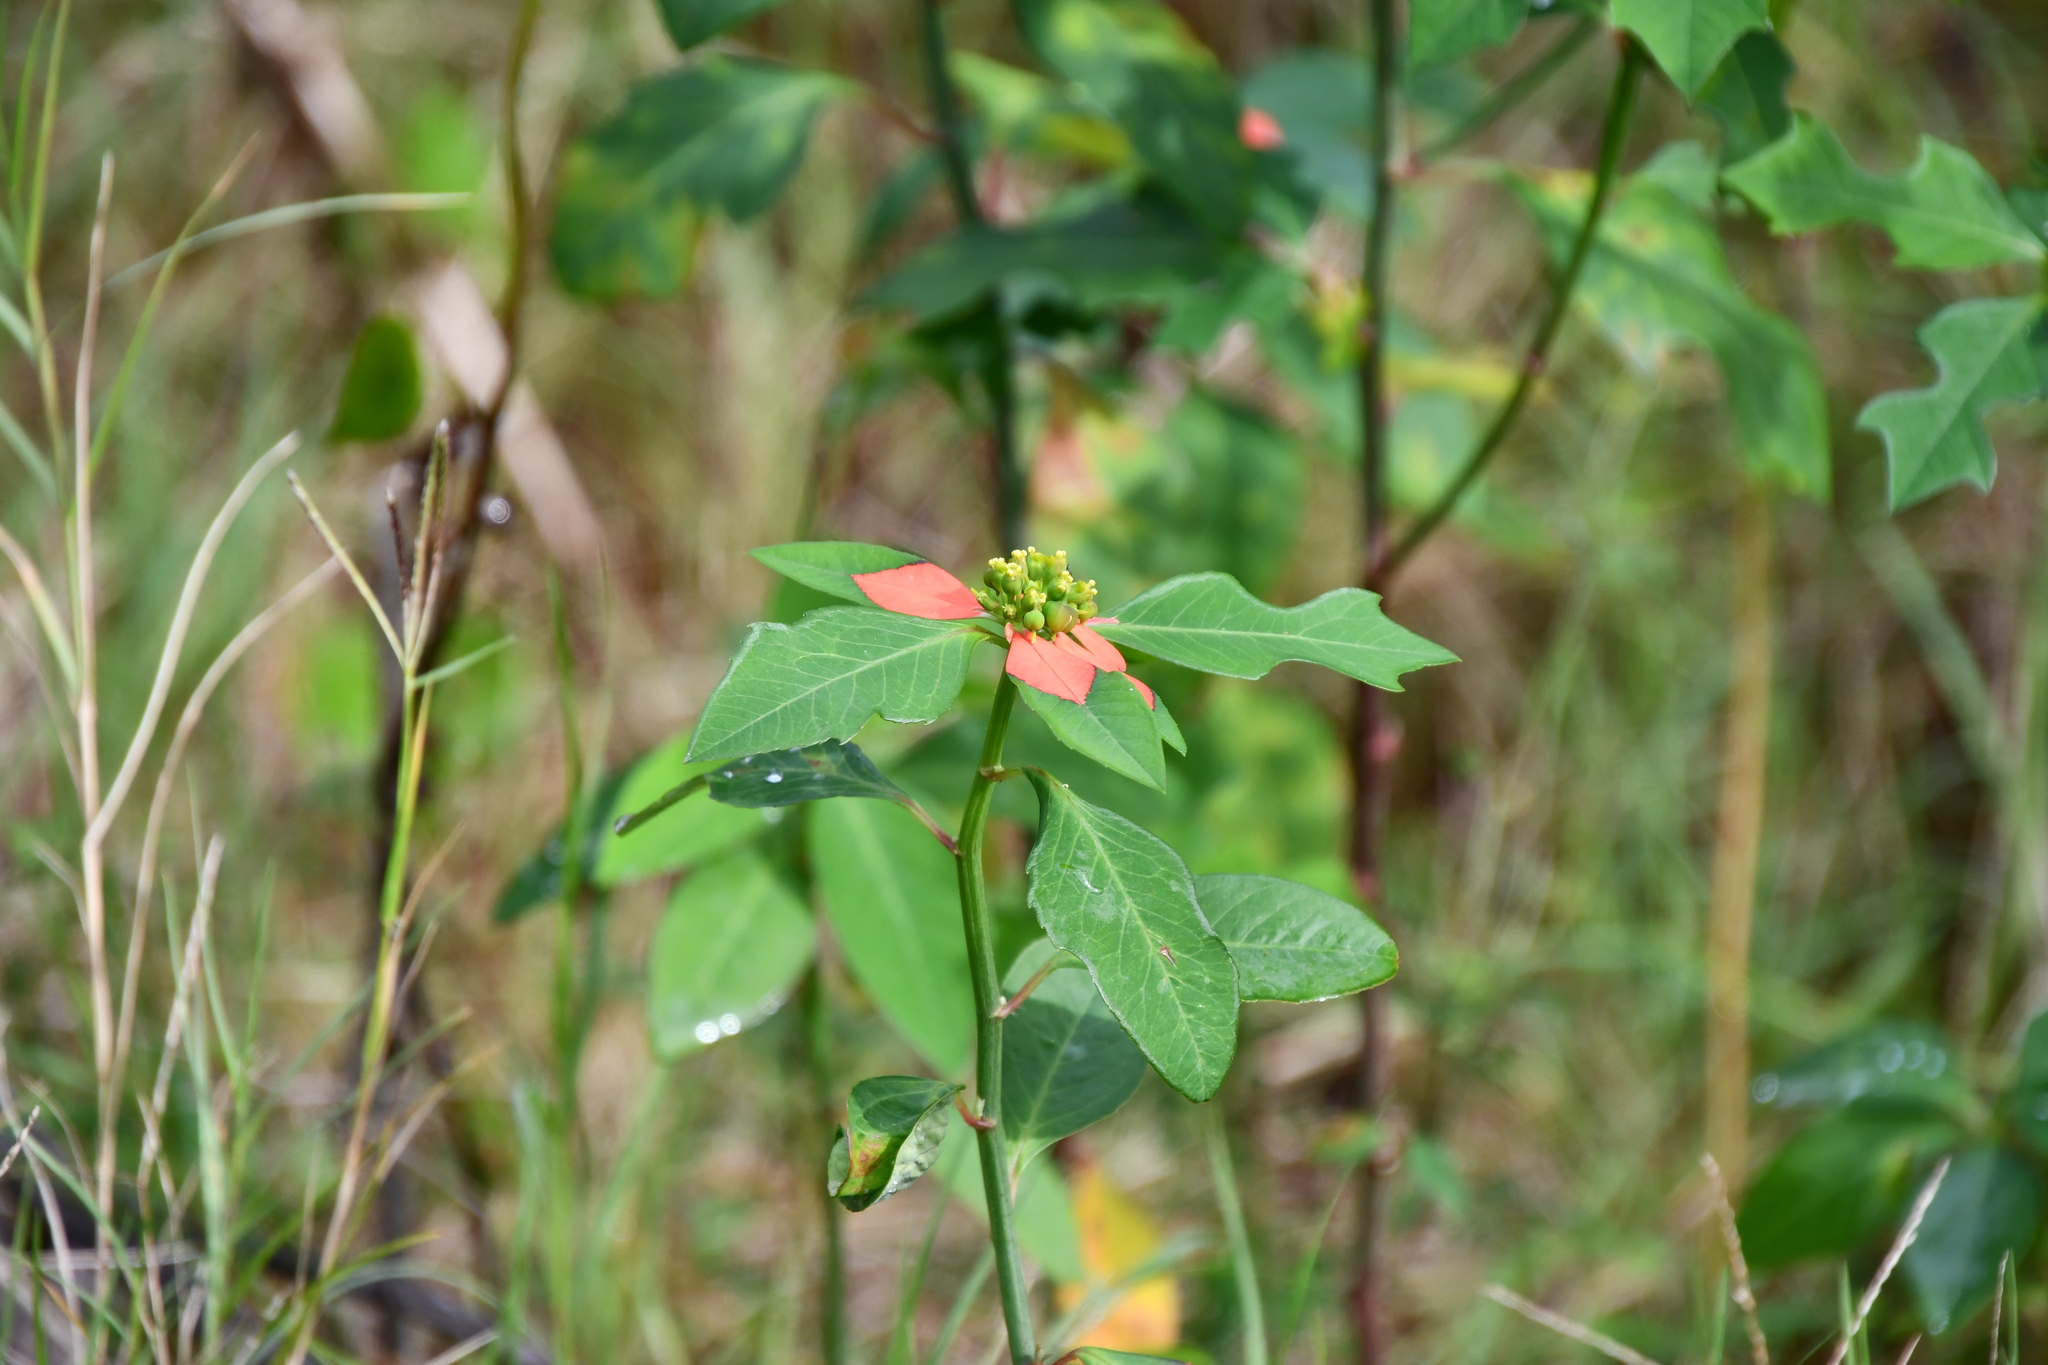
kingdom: Plantae
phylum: Tracheophyta
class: Magnoliopsida
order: Malpighiales
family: Euphorbiaceae
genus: Euphorbia
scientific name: Euphorbia heterophylla
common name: Mexican fireplant
